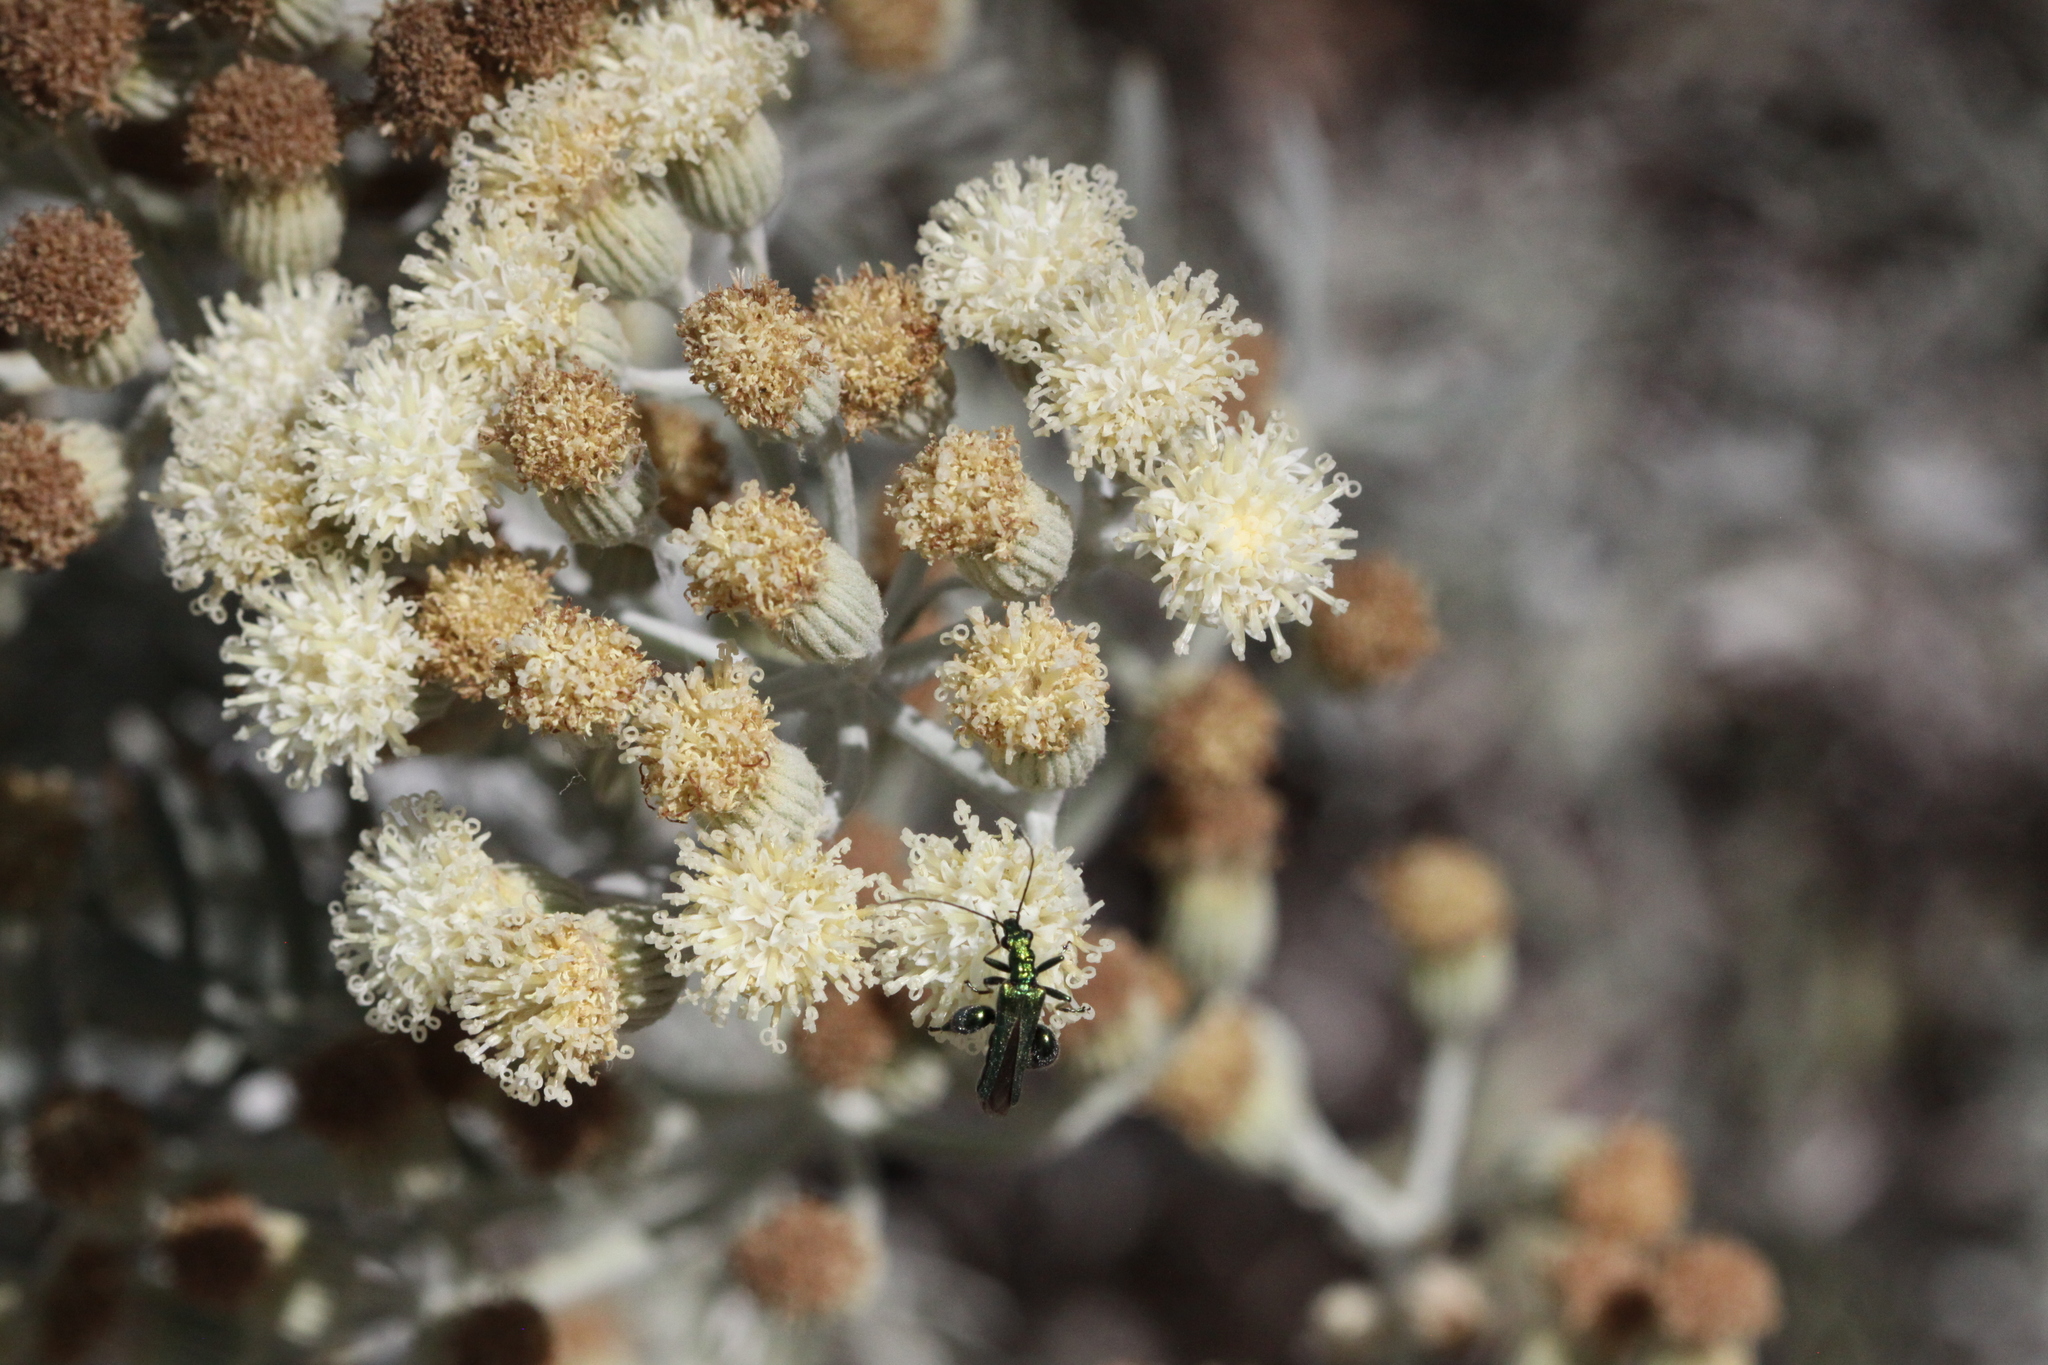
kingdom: Animalia
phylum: Arthropoda
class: Insecta
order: Coleoptera
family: Oedemeridae
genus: Oedemera
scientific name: Oedemera nobilis
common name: Swollen-thighed beetle
